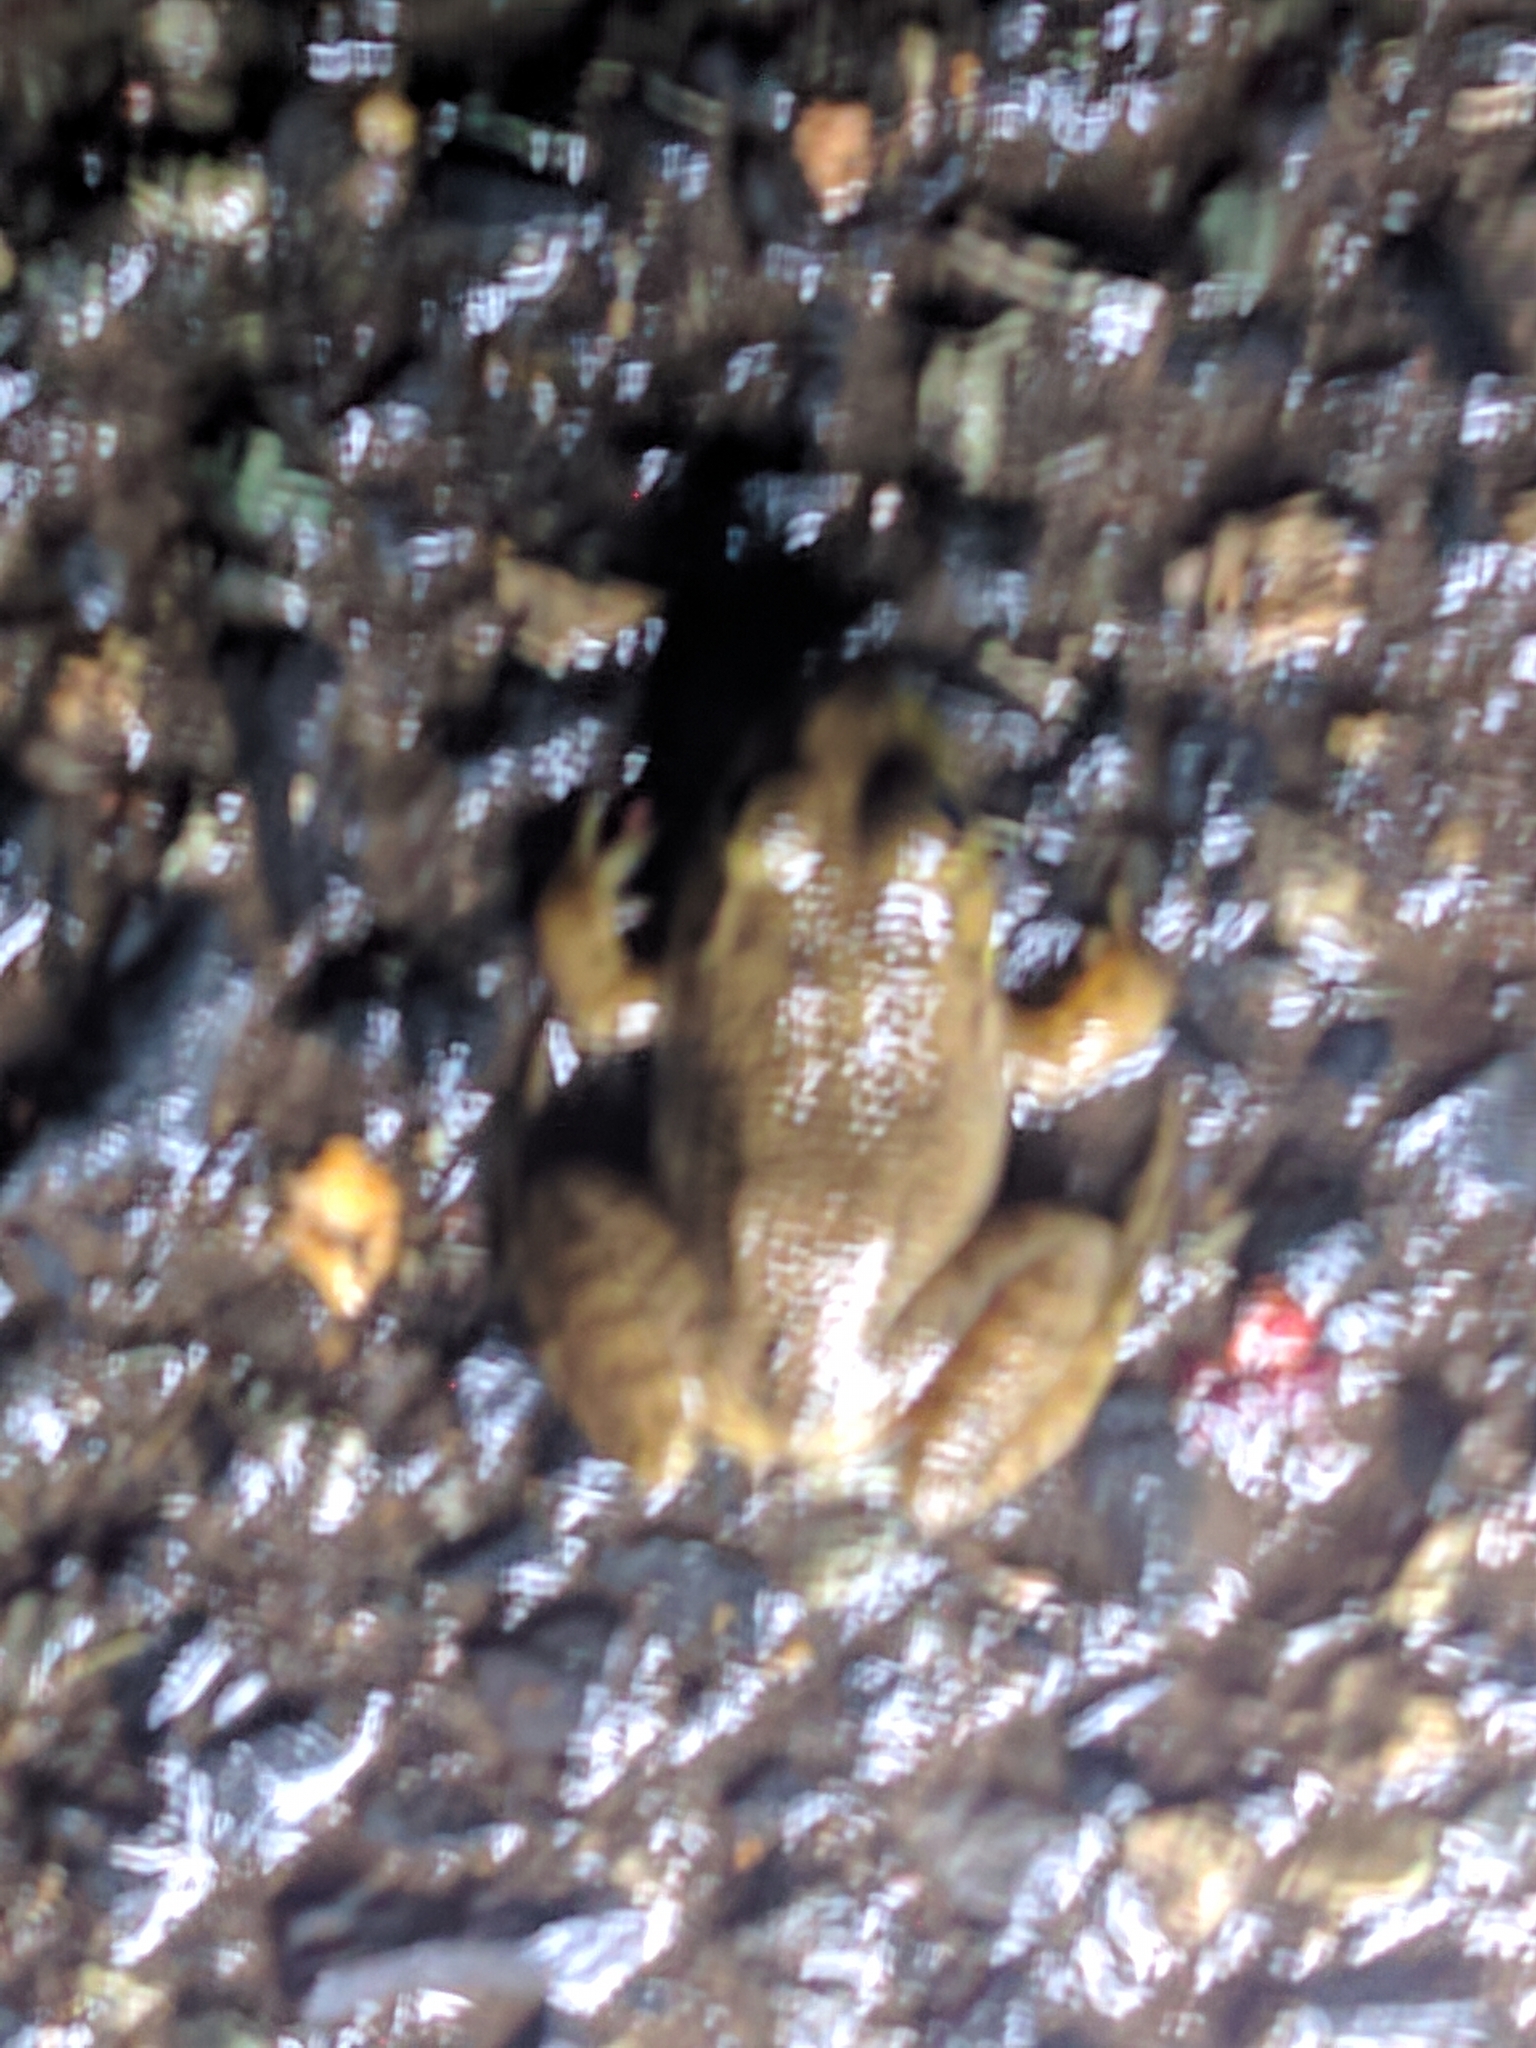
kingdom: Animalia
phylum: Chordata
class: Amphibia
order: Anura
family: Ranidae
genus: Lithobates
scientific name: Lithobates catesbeianus
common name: American bullfrog
